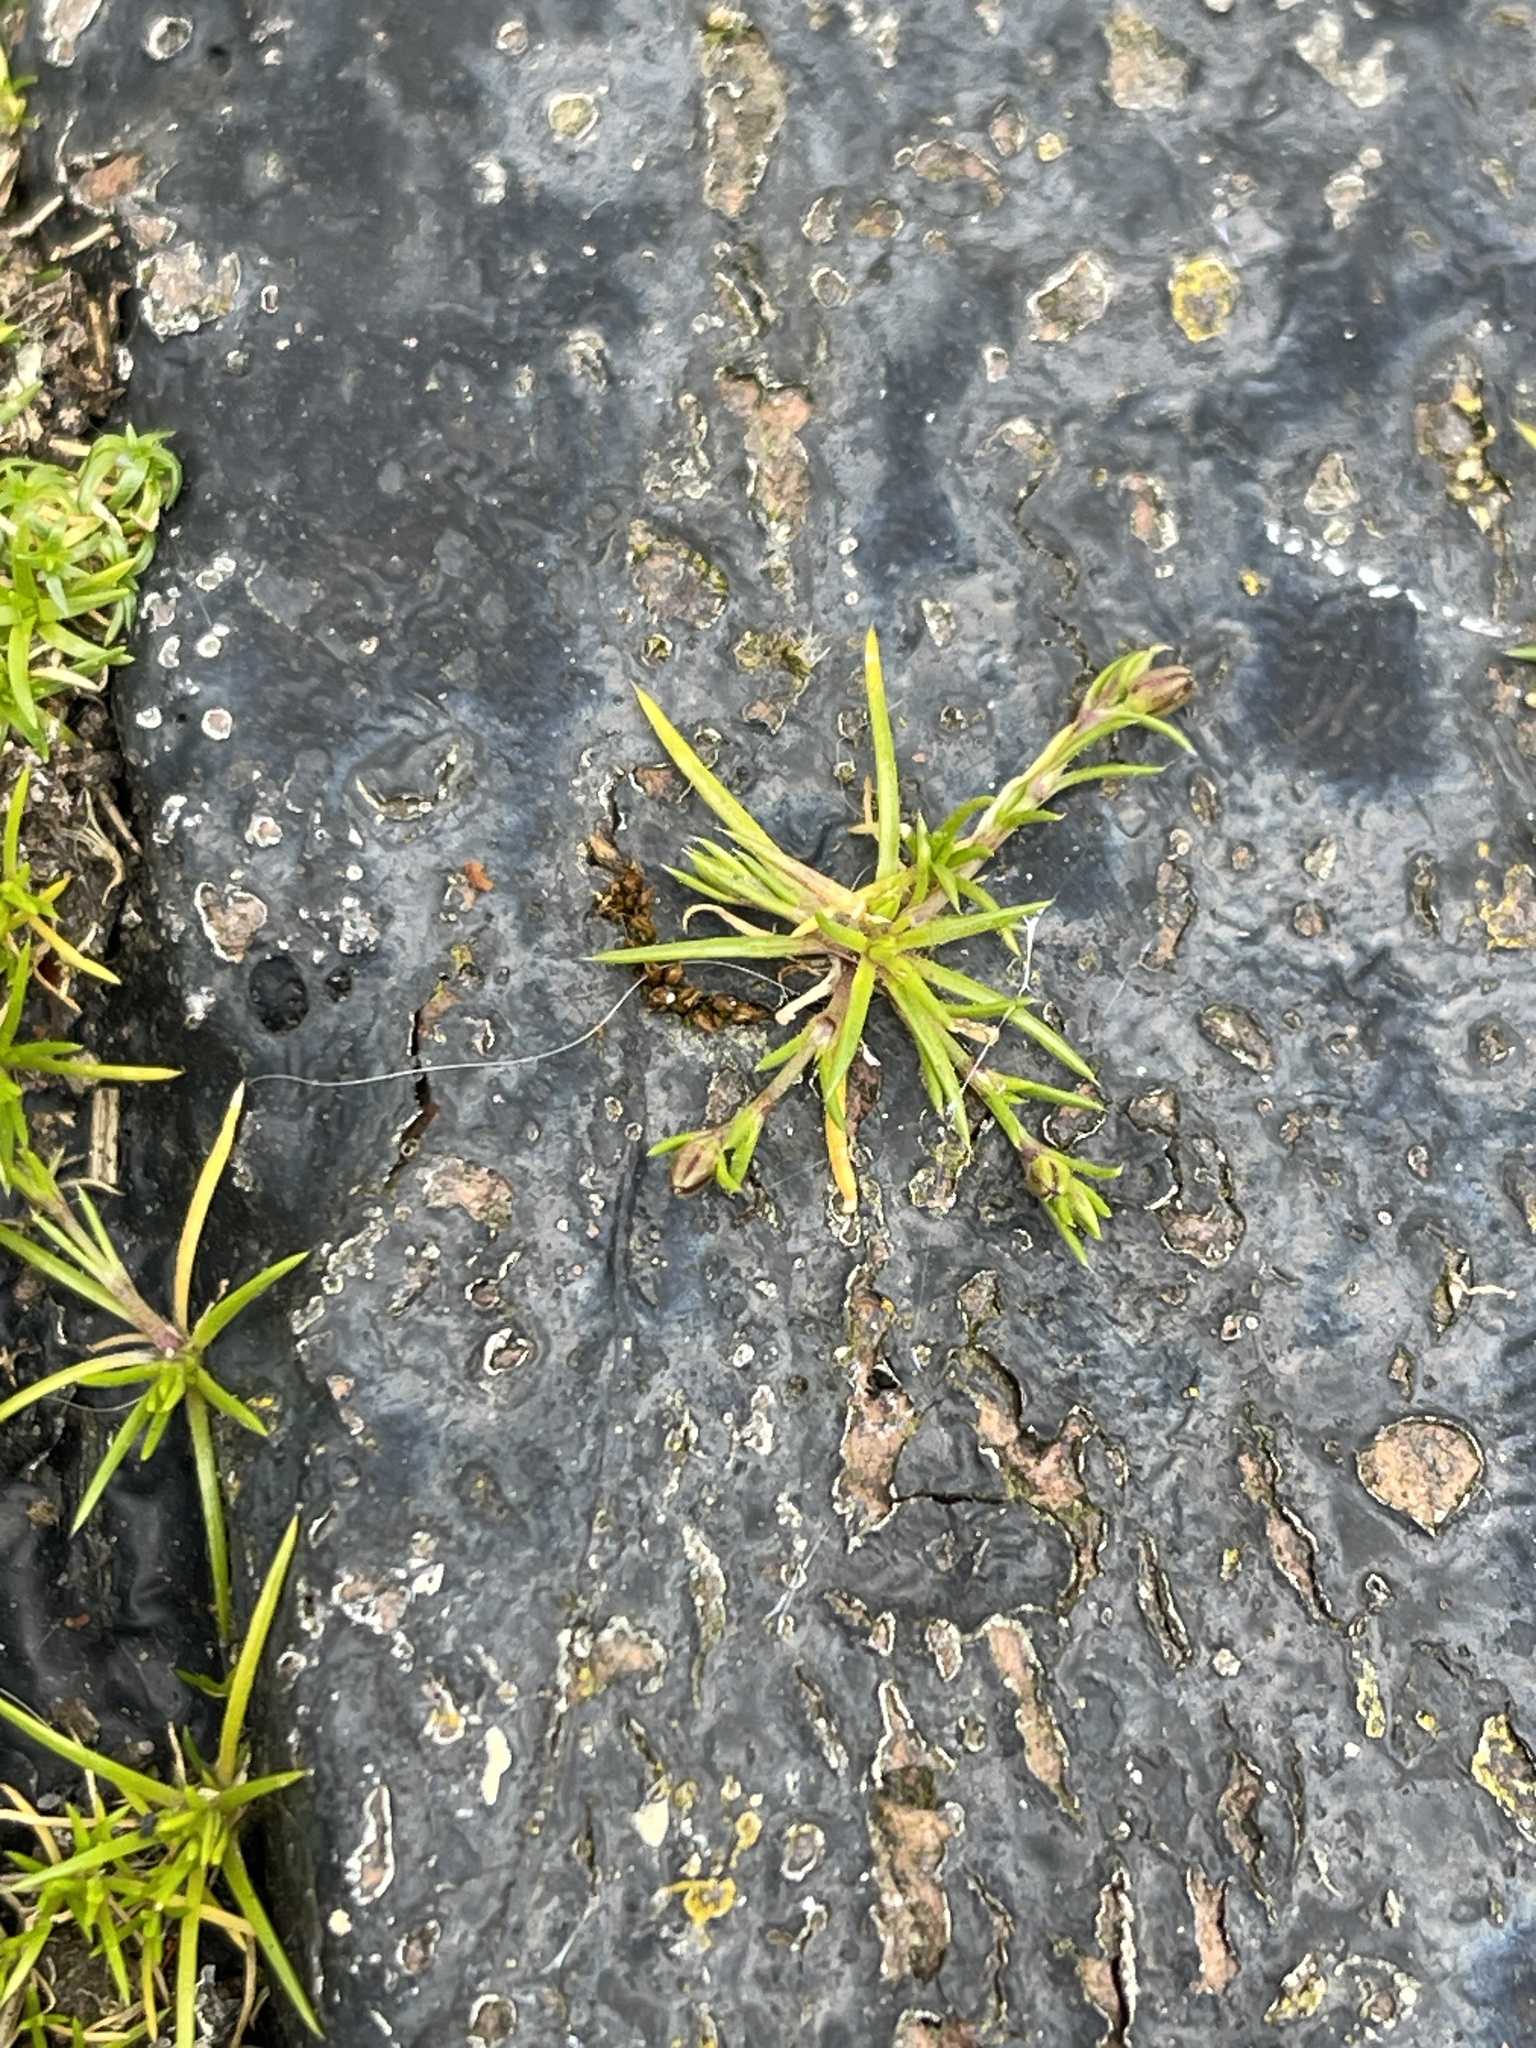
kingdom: Plantae
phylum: Tracheophyta
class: Magnoliopsida
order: Caryophyllales
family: Caryophyllaceae
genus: Sagina
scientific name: Sagina procumbens
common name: Procumbent pearlwort
